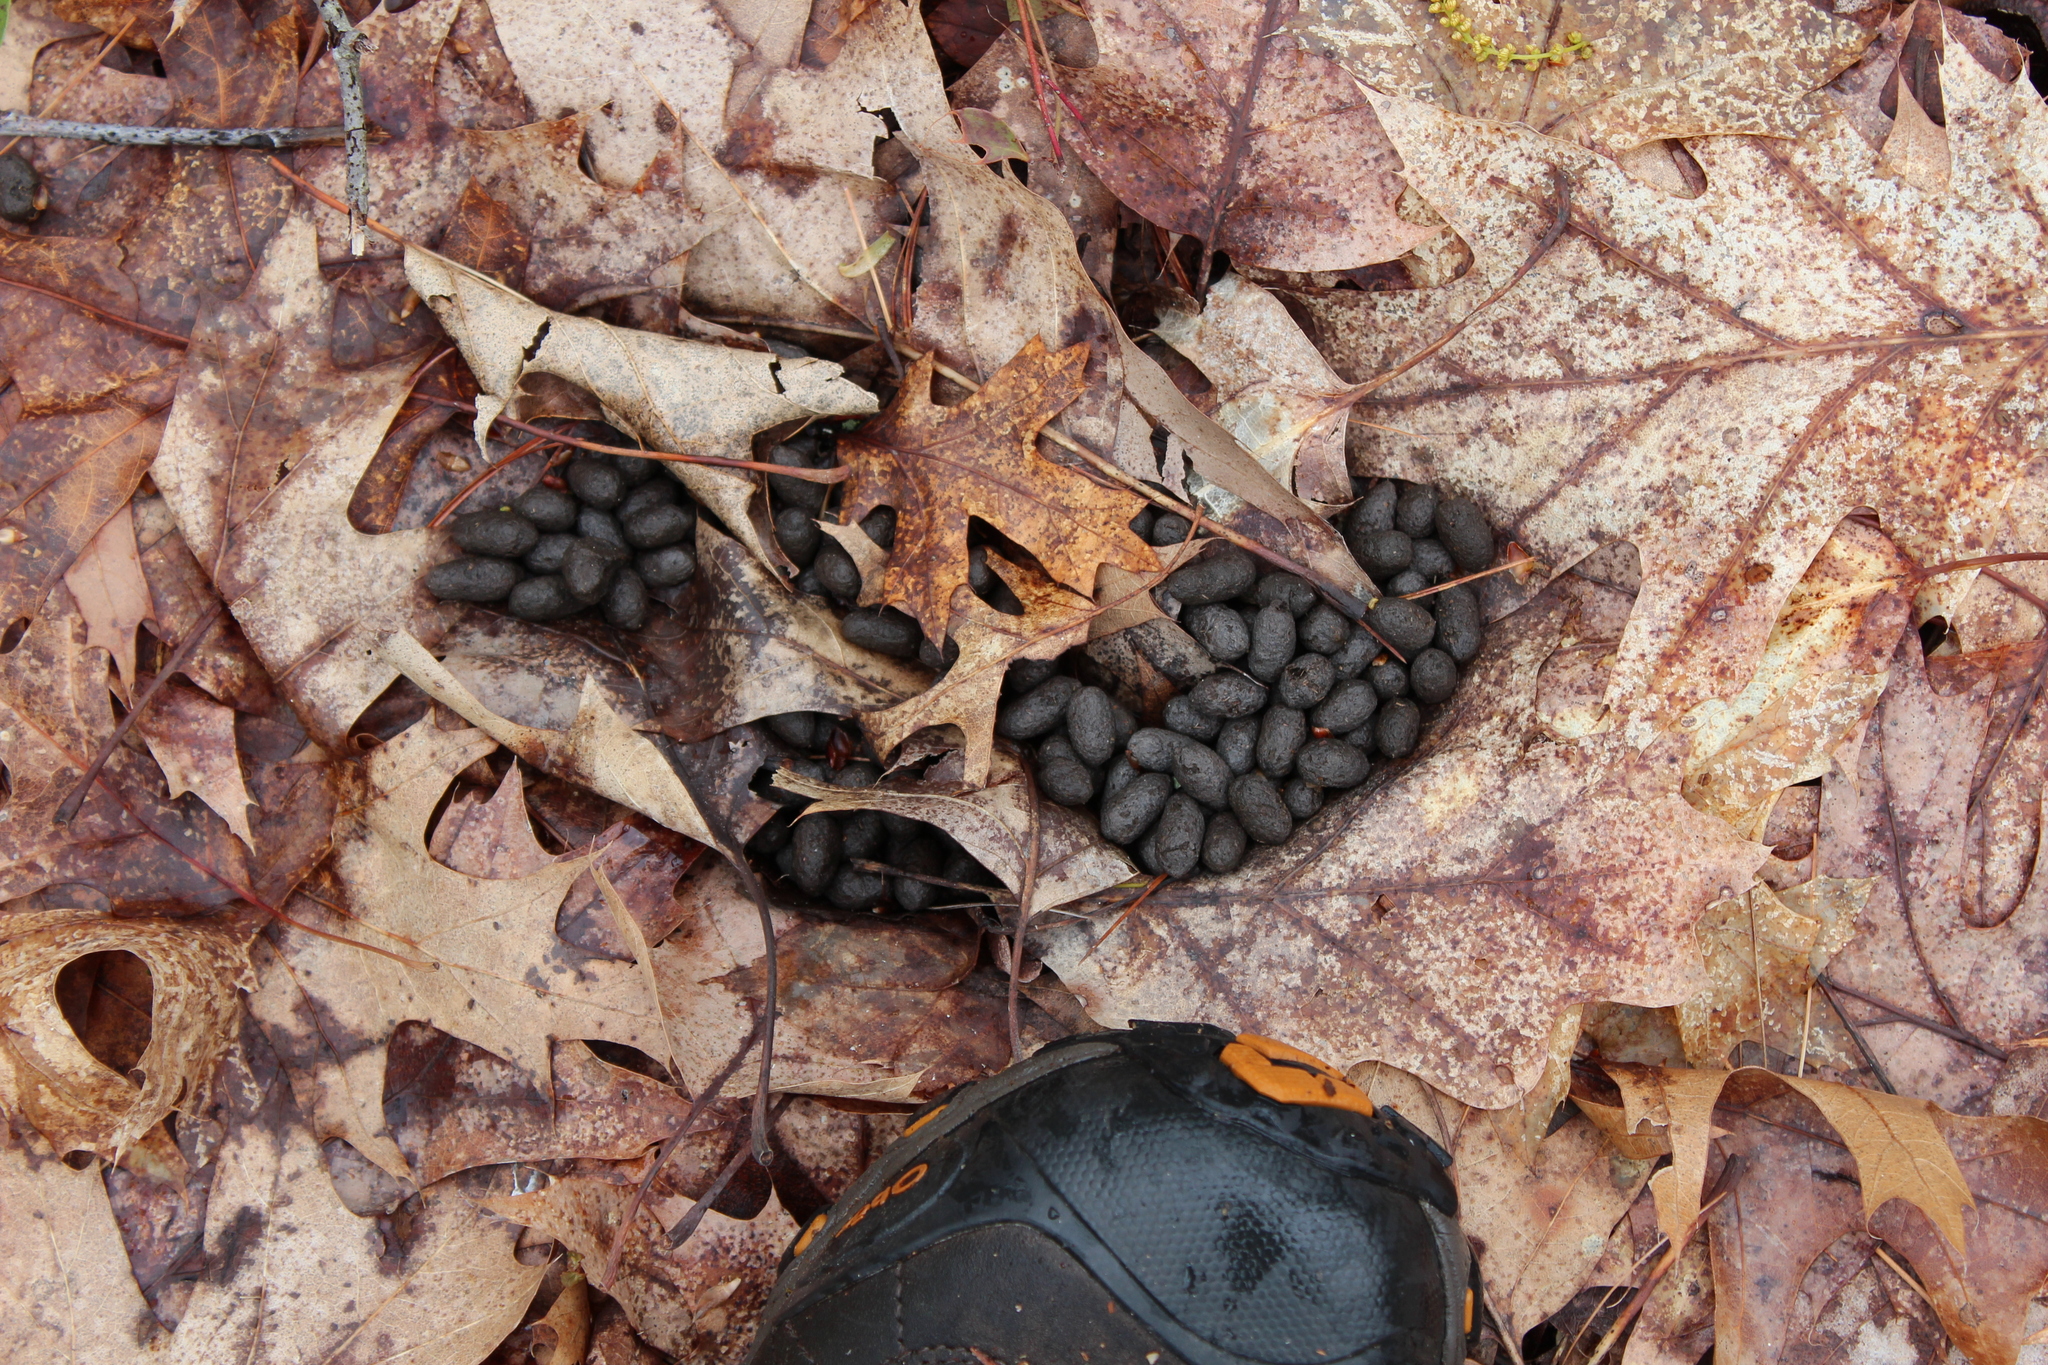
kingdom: Animalia
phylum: Chordata
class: Mammalia
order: Artiodactyla
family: Cervidae
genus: Odocoileus
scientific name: Odocoileus virginianus
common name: White-tailed deer
